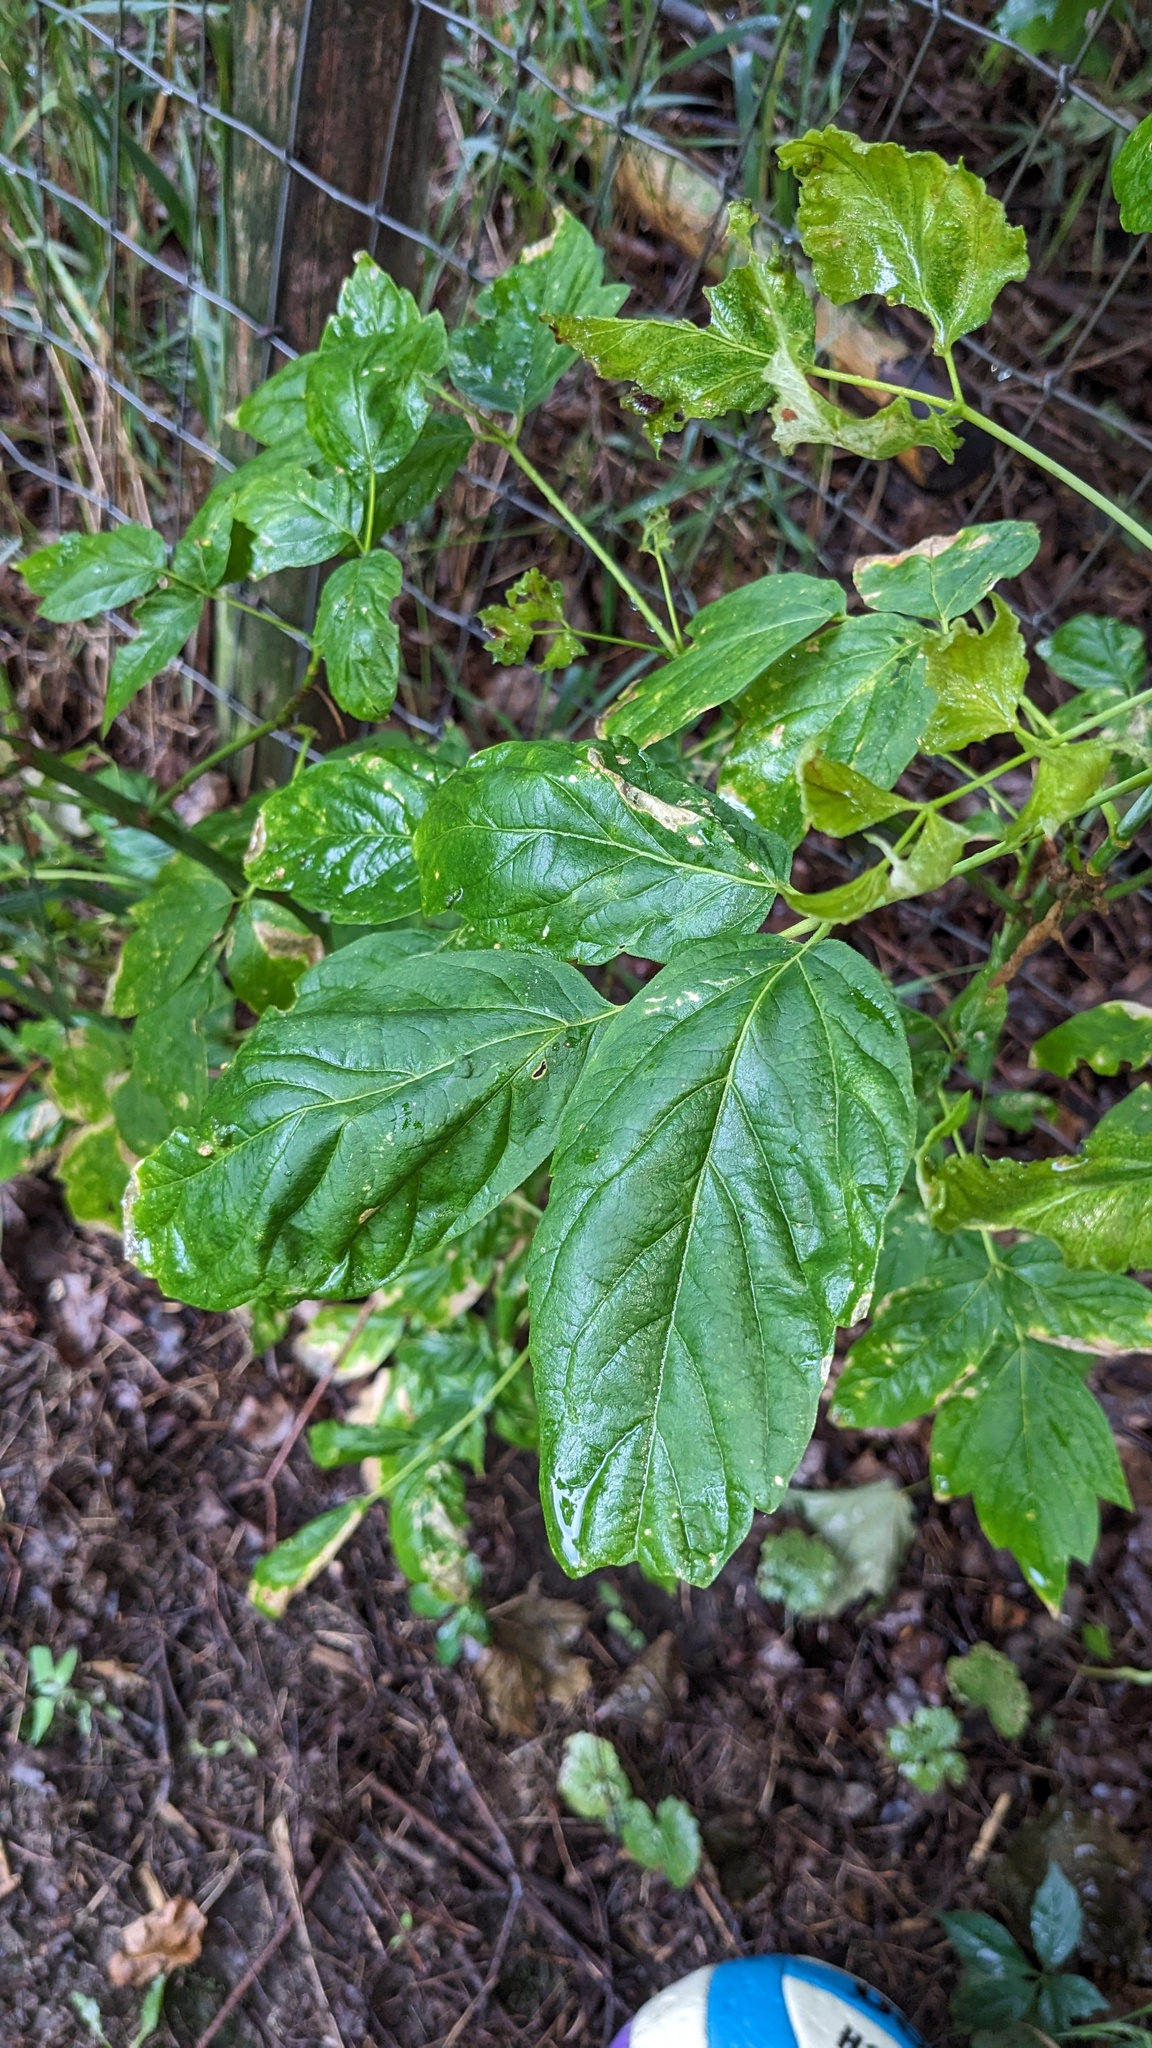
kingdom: Plantae
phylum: Tracheophyta
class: Magnoliopsida
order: Sapindales
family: Sapindaceae
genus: Acer
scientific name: Acer negundo
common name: Ashleaf maple
